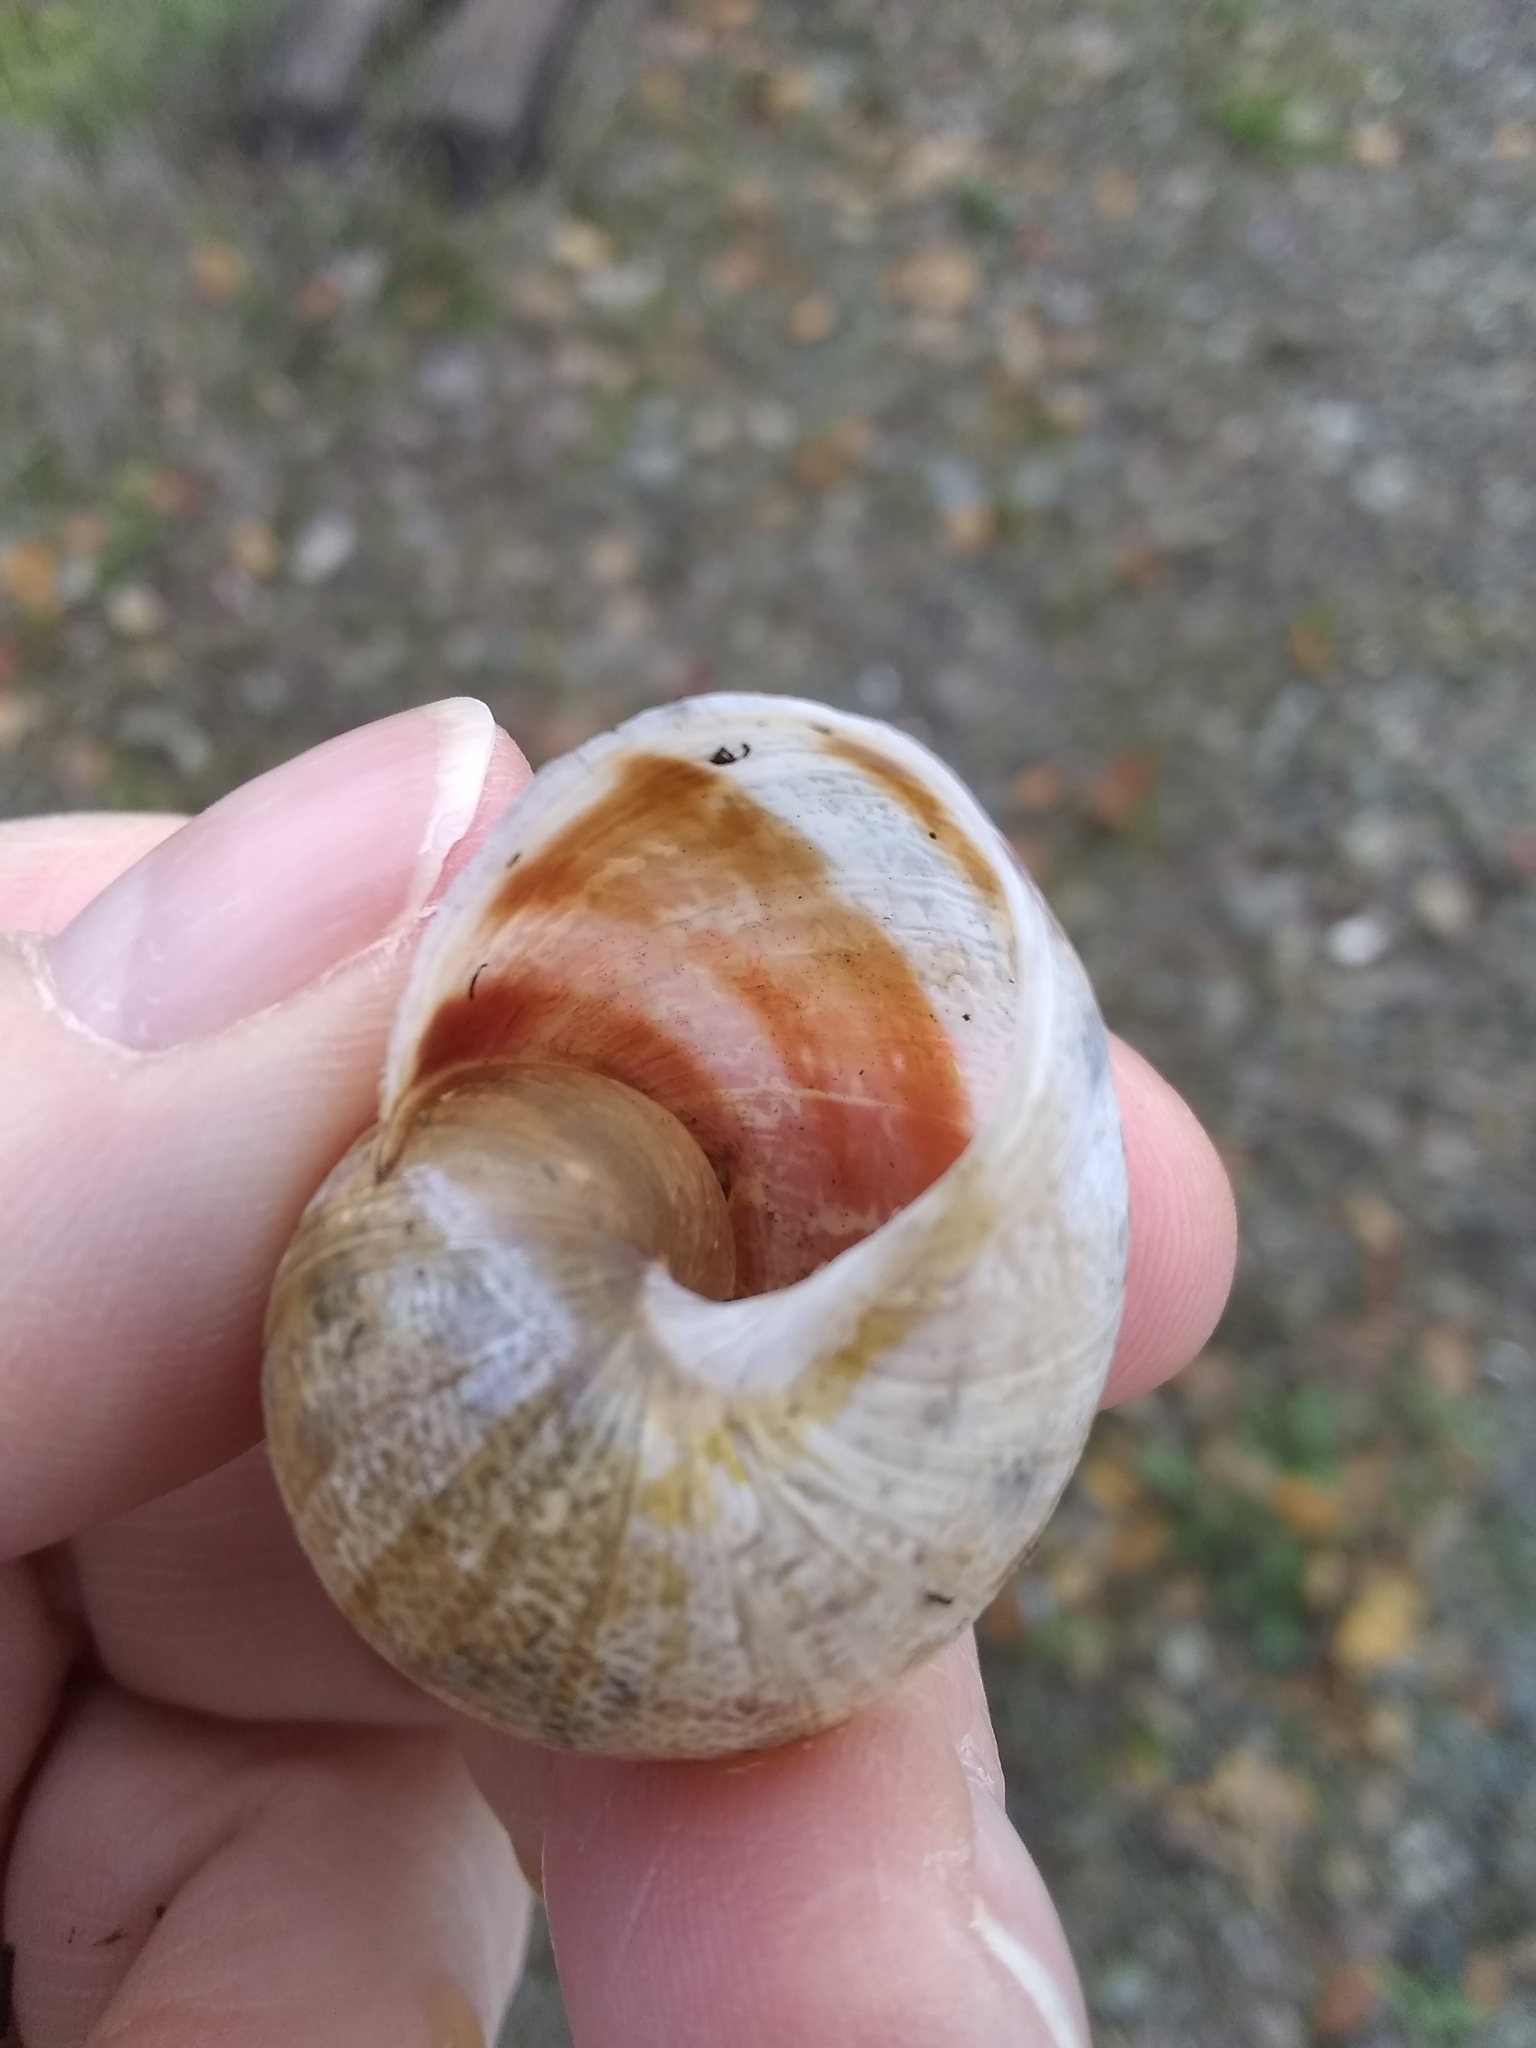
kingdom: Animalia
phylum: Mollusca
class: Gastropoda
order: Stylommatophora
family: Helicidae
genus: Cornu
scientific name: Cornu aspersum
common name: Brown garden snail
